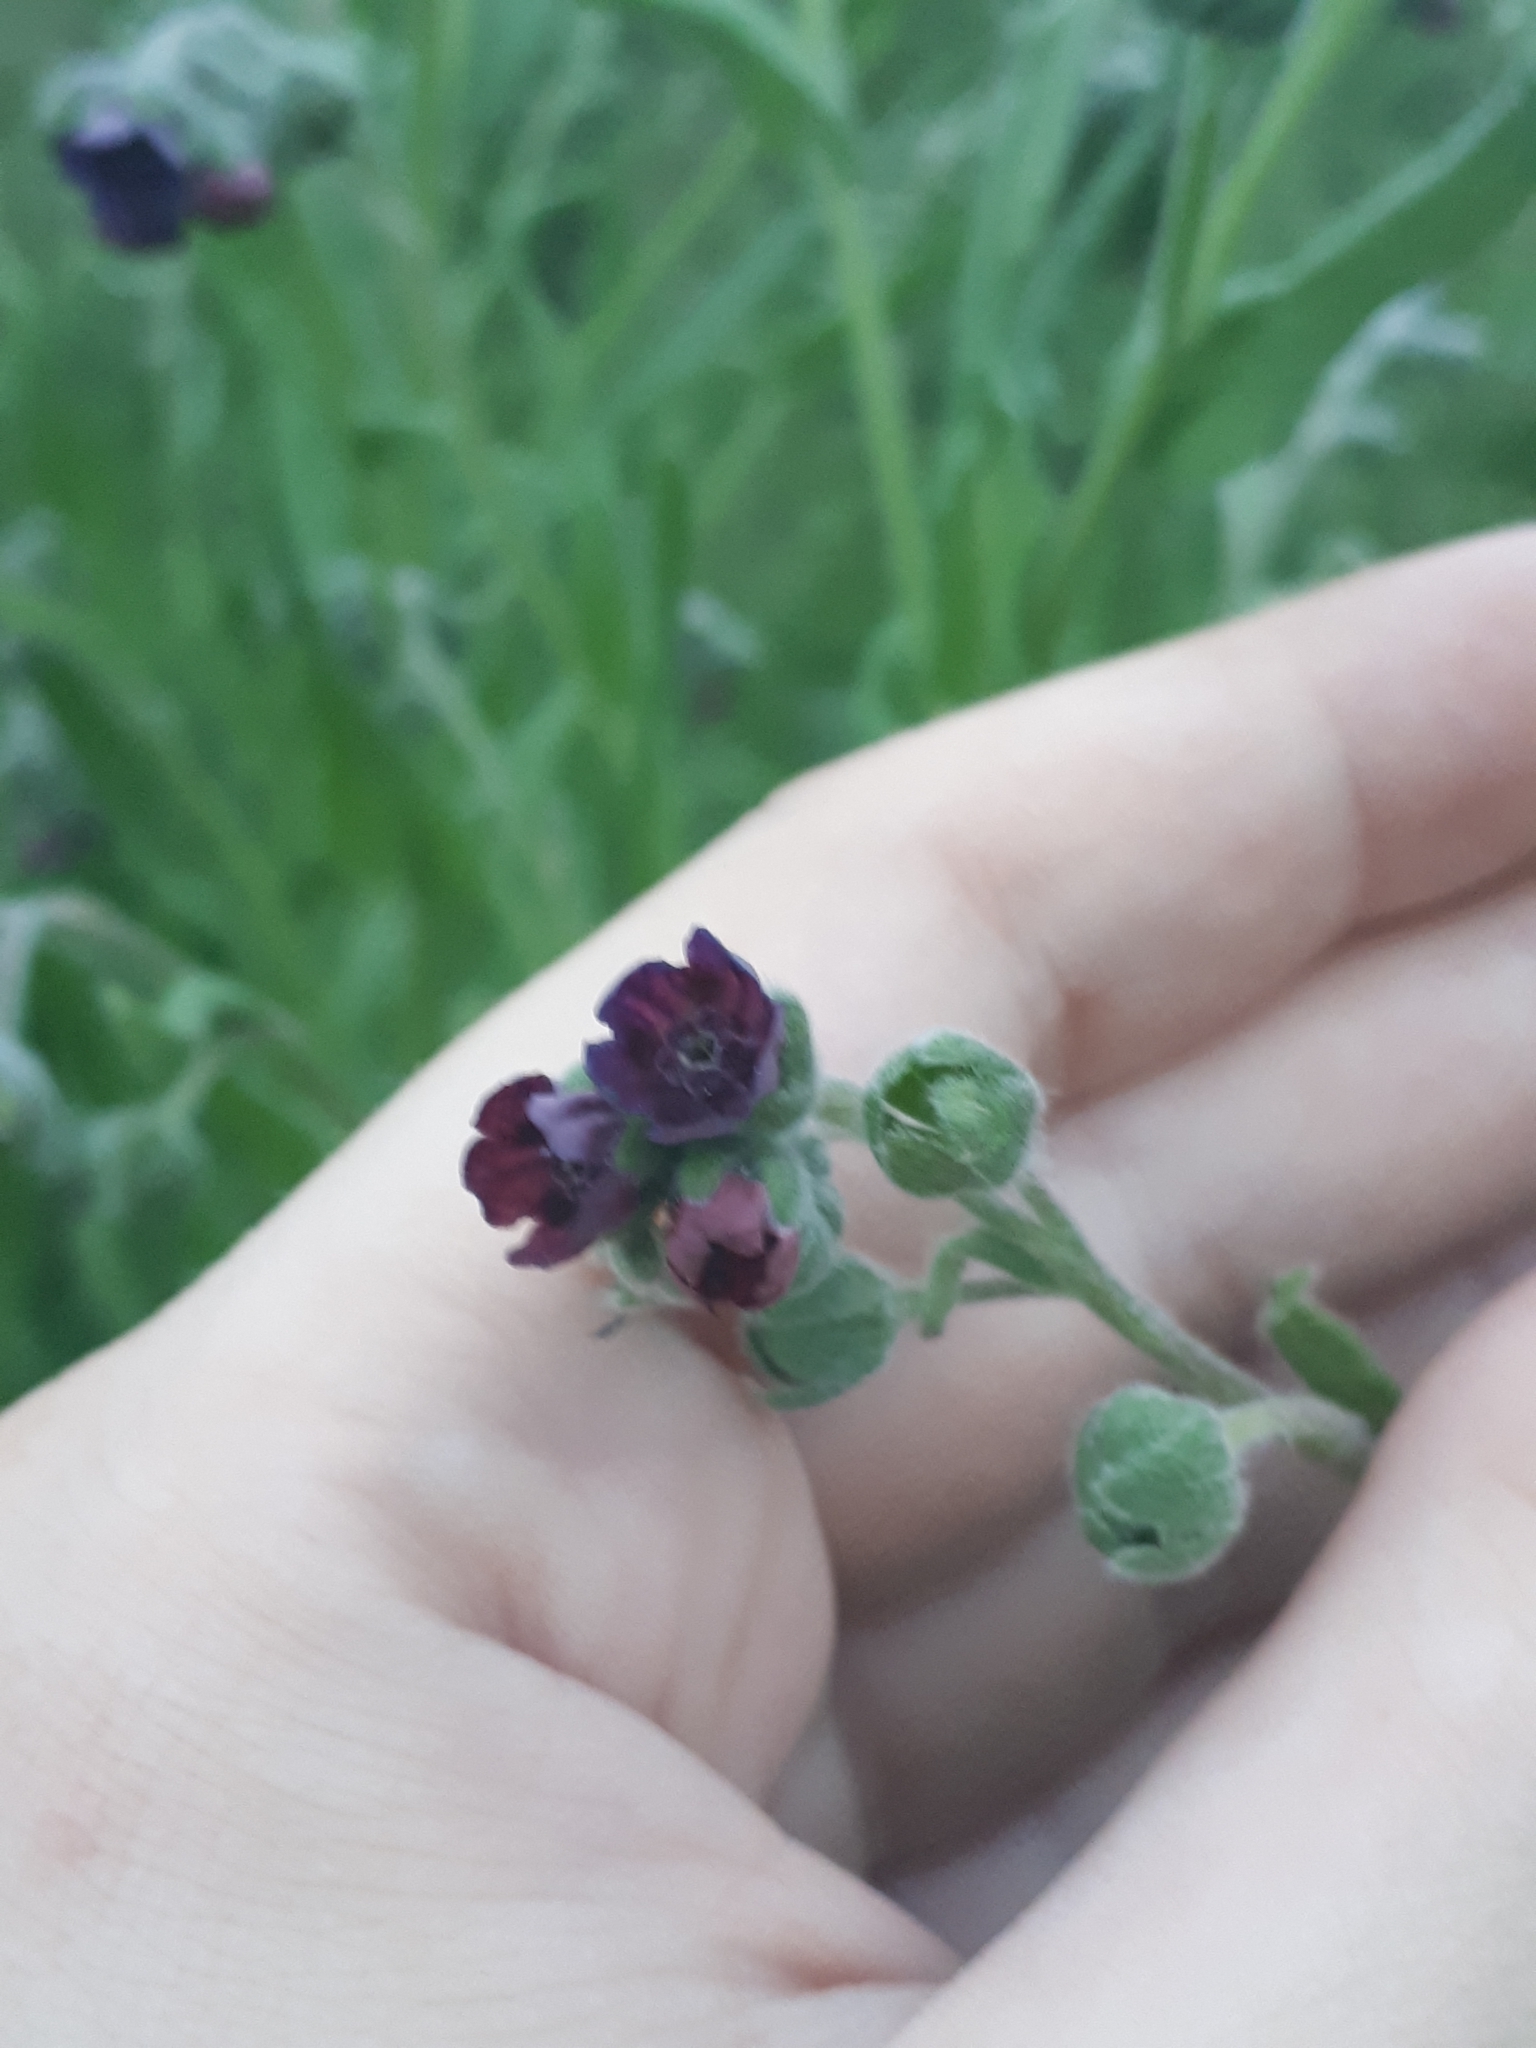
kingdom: Plantae
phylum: Tracheophyta
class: Magnoliopsida
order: Boraginales
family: Boraginaceae
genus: Cynoglossum
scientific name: Cynoglossum officinale
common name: Hound's-tongue
